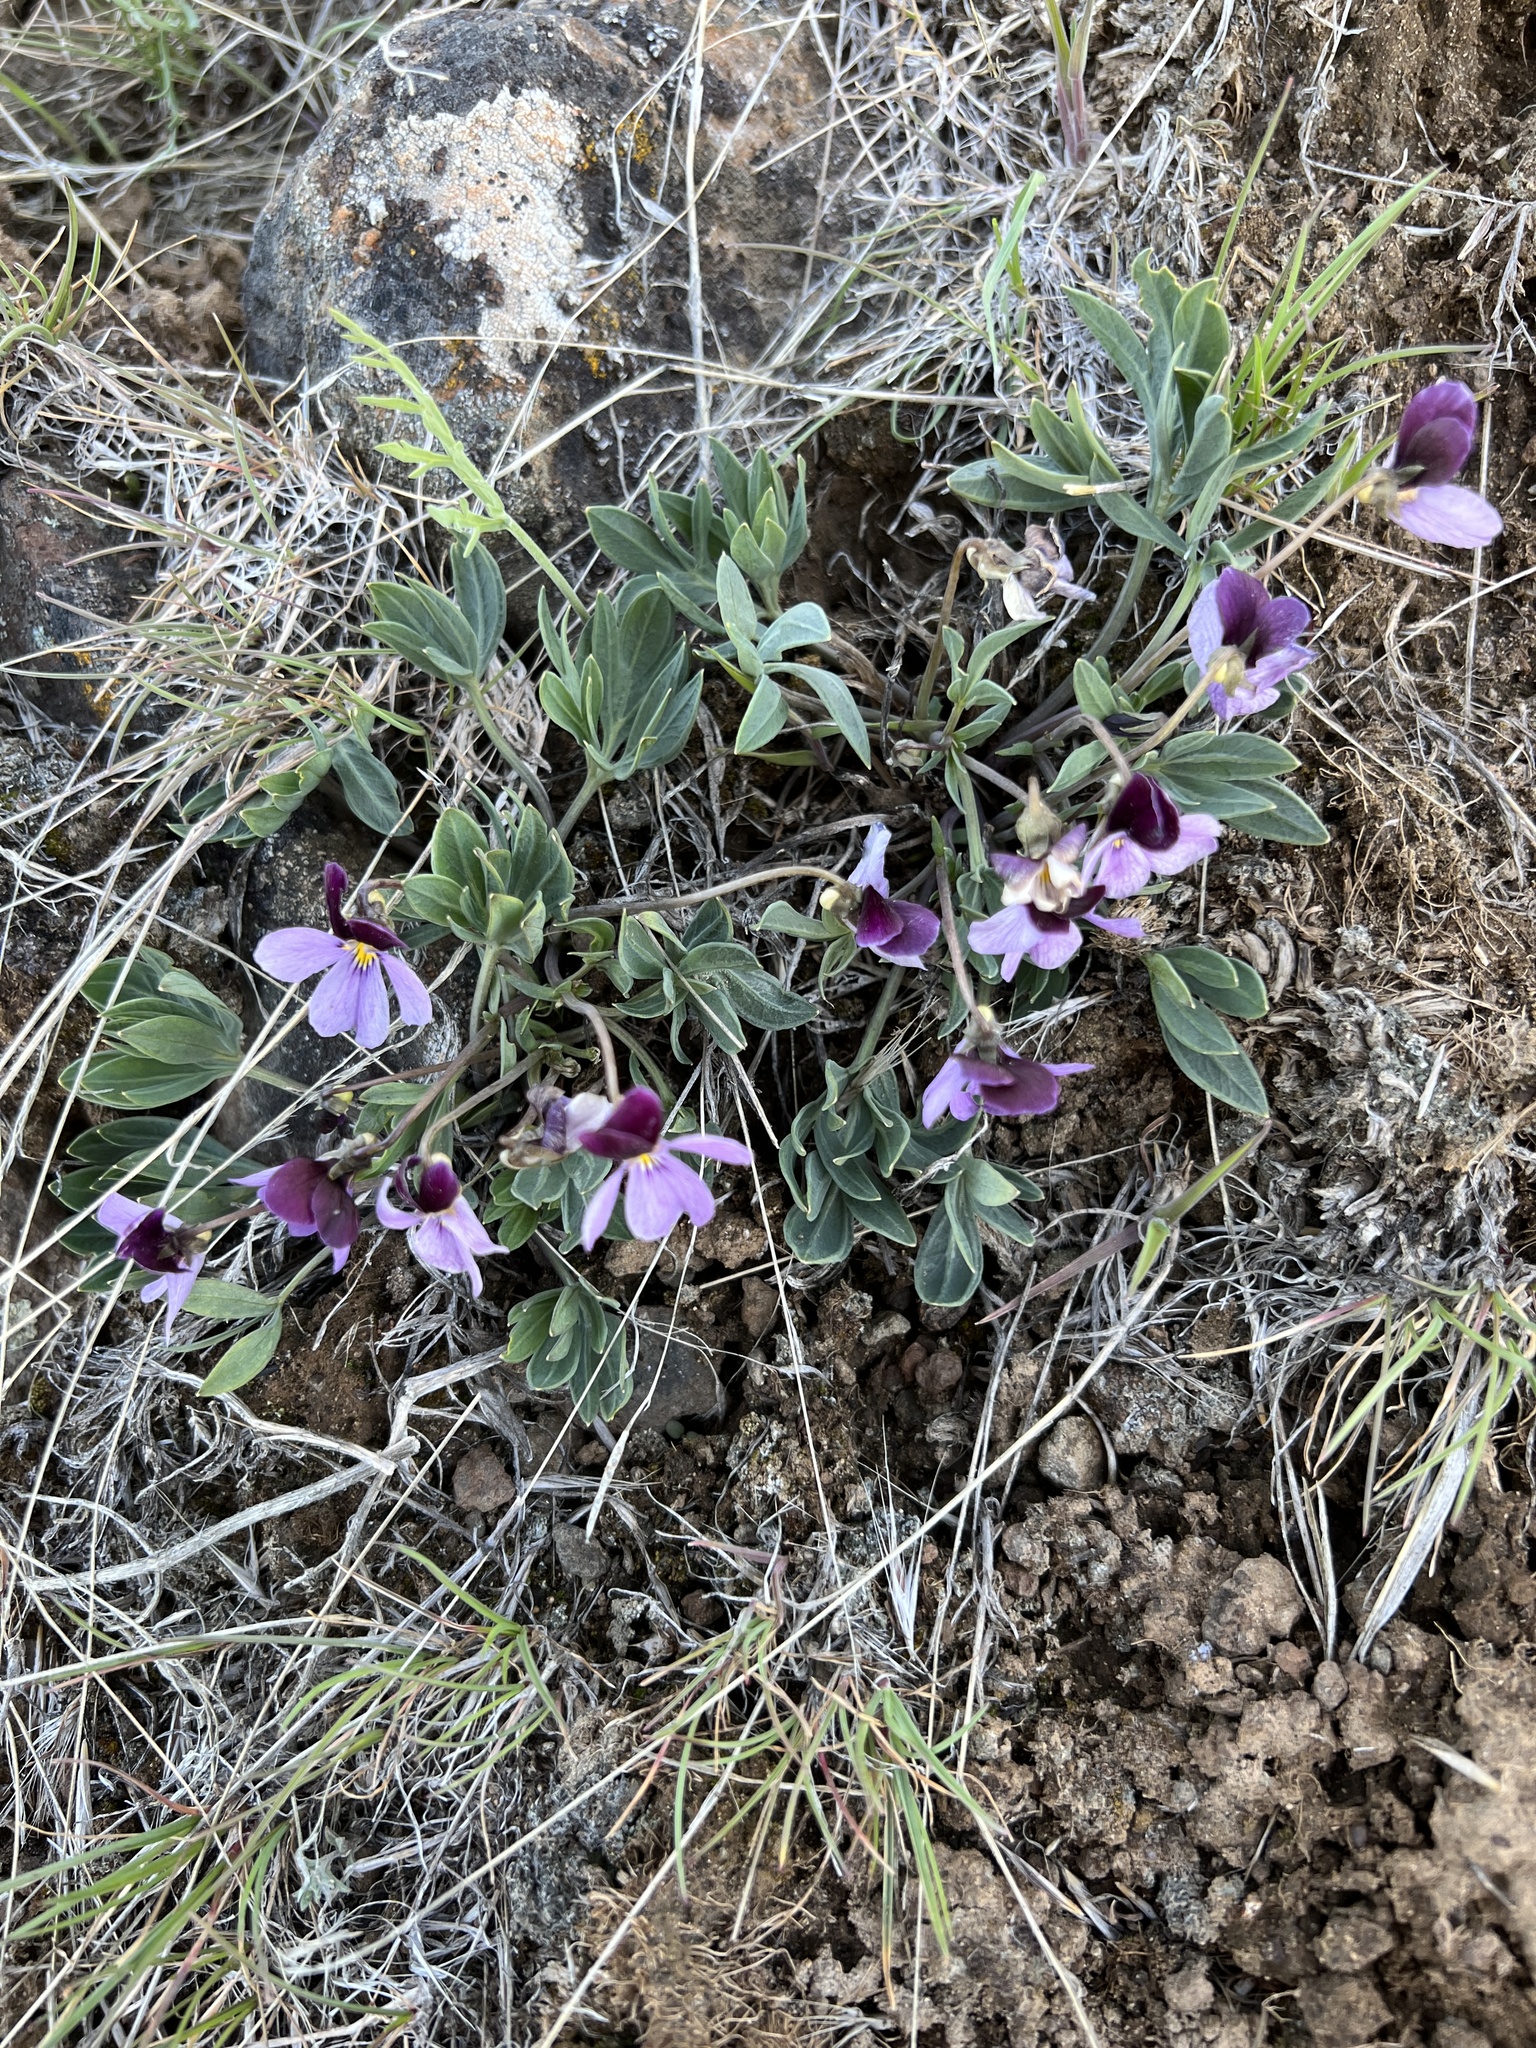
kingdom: Plantae
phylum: Tracheophyta
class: Magnoliopsida
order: Malpighiales
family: Violaceae
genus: Viola
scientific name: Viola trinervata
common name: Sagebrush violet
